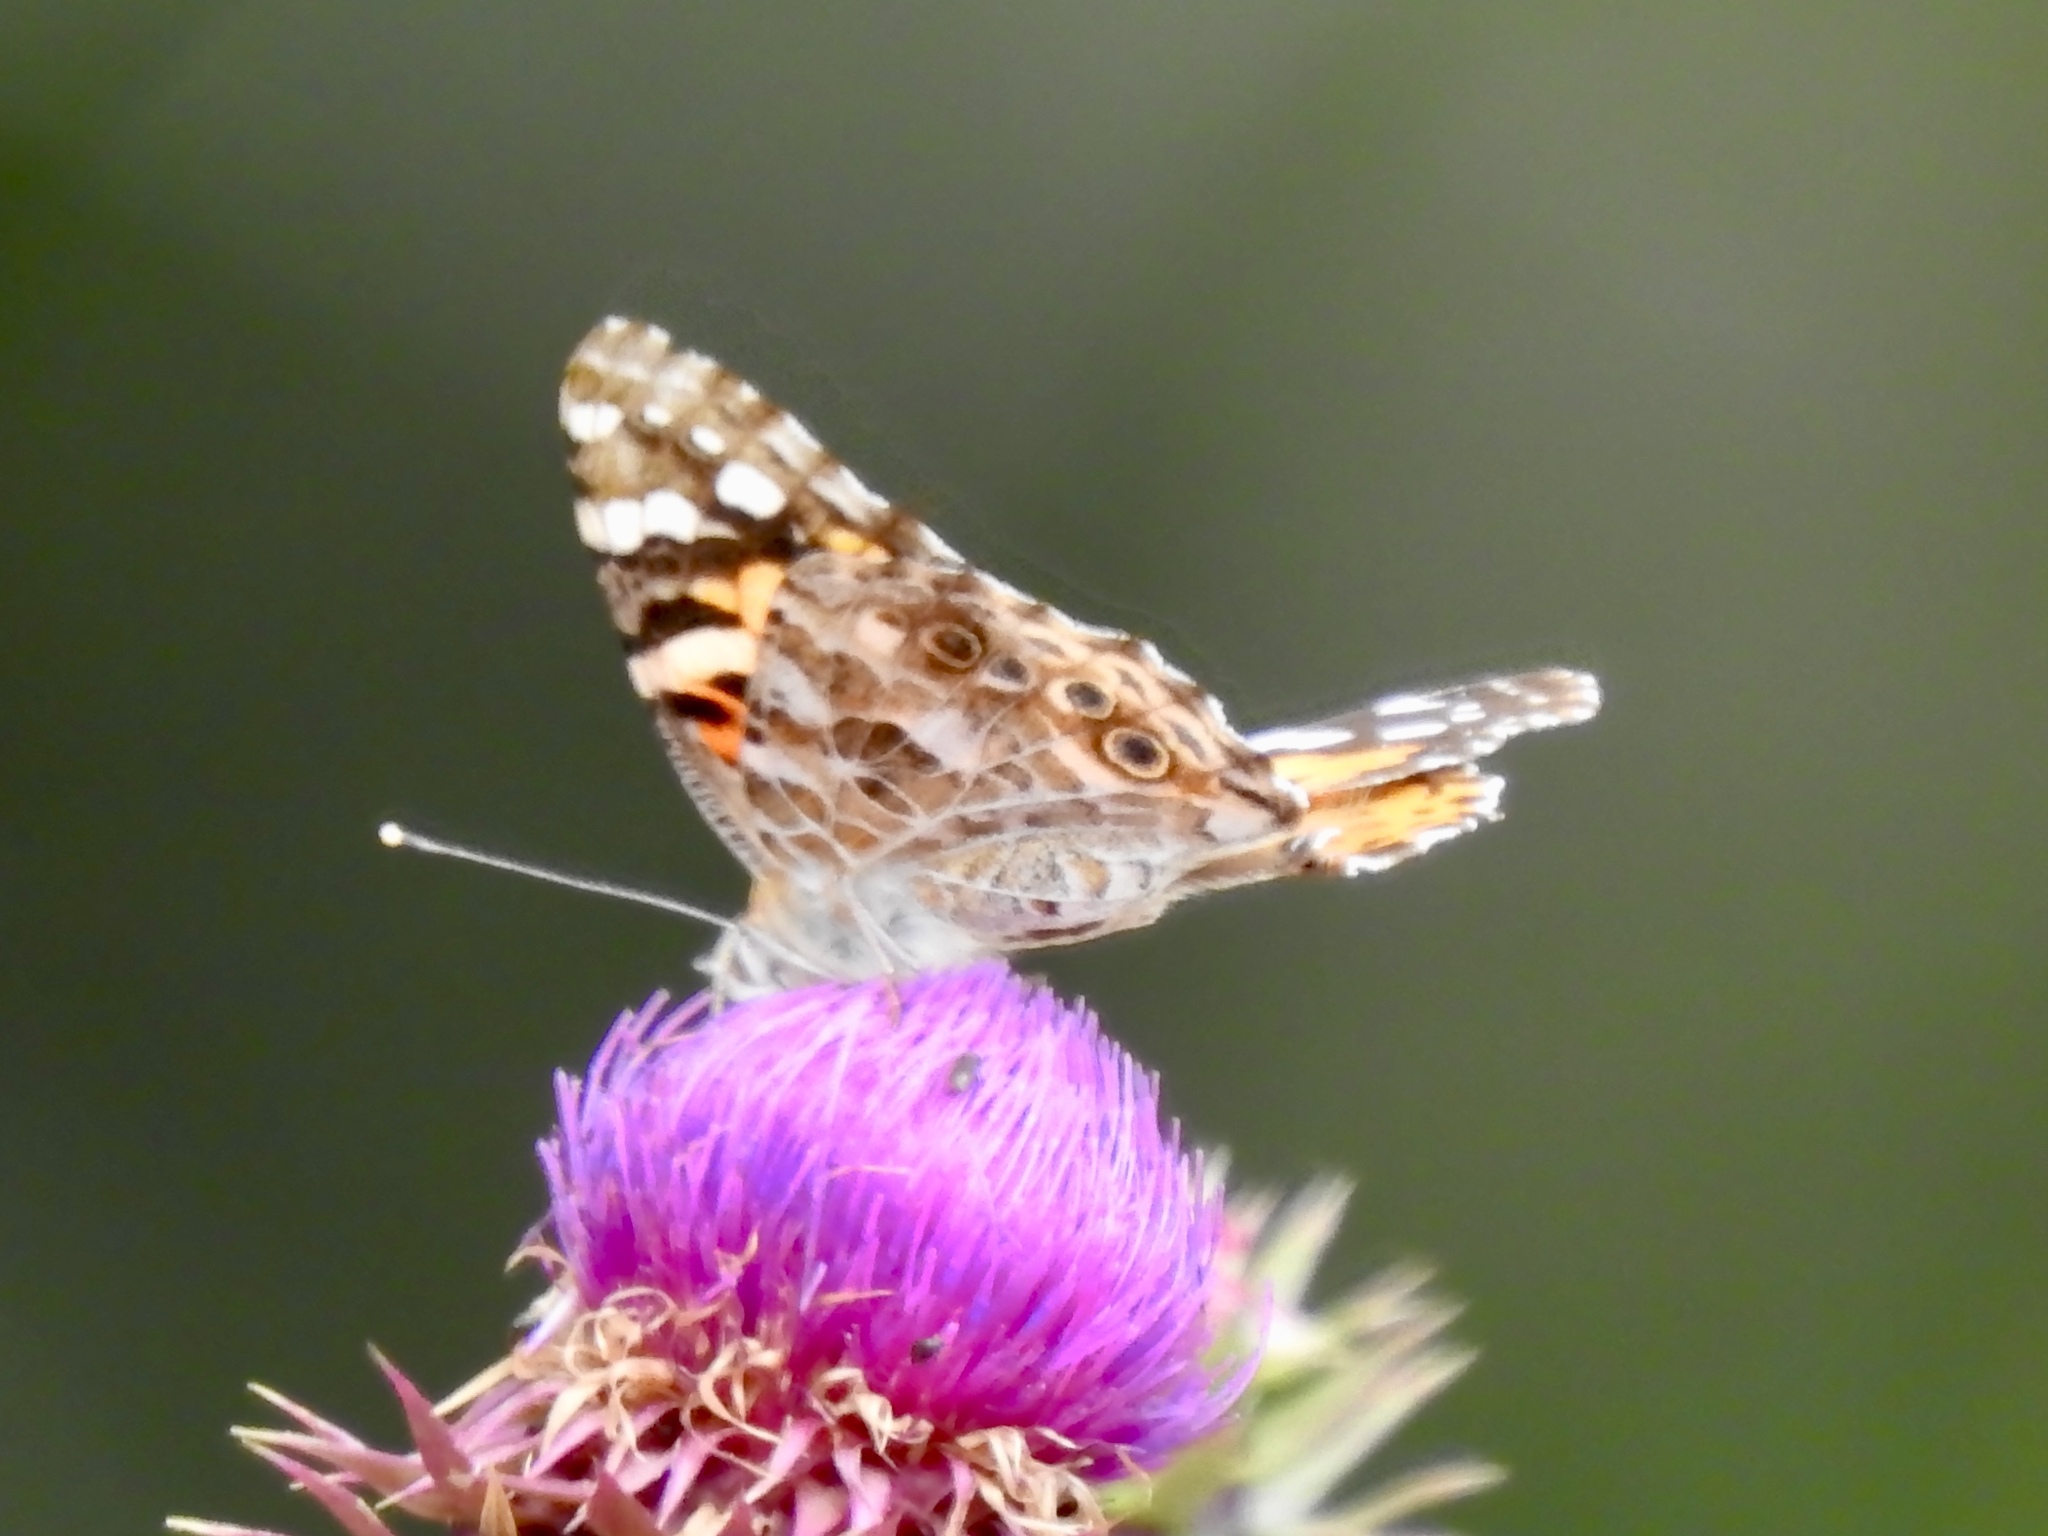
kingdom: Animalia
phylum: Arthropoda
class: Insecta
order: Lepidoptera
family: Nymphalidae
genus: Vanessa
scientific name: Vanessa cardui
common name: Painted lady
